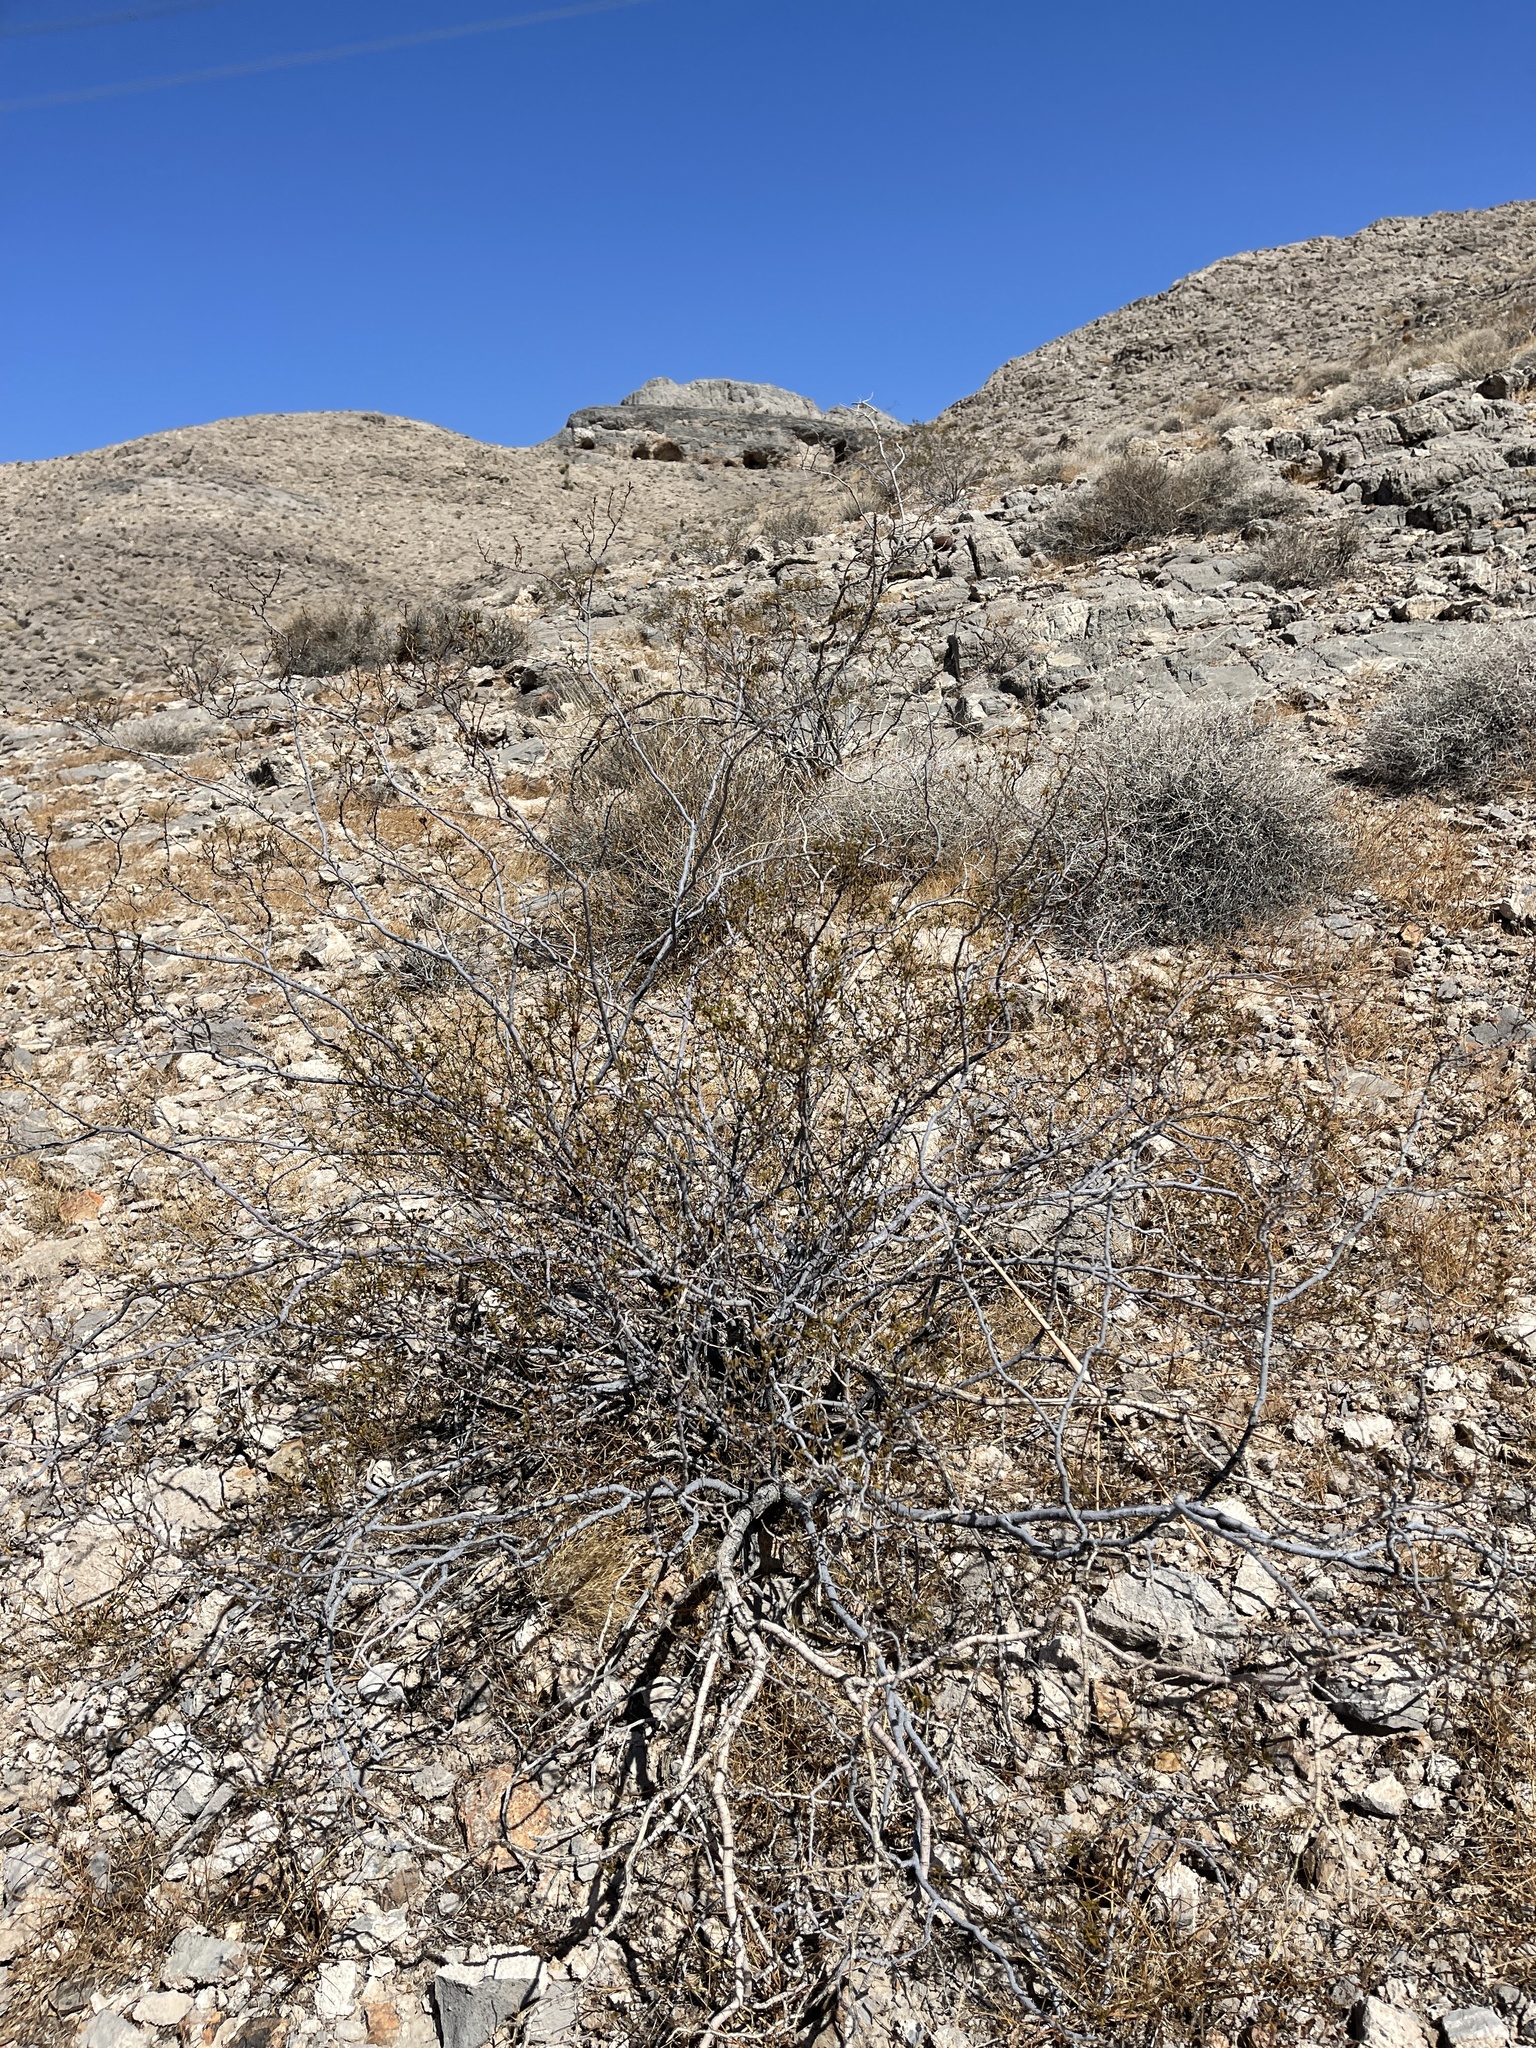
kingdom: Plantae
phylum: Tracheophyta
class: Magnoliopsida
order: Zygophyllales
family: Zygophyllaceae
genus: Larrea
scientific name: Larrea tridentata
